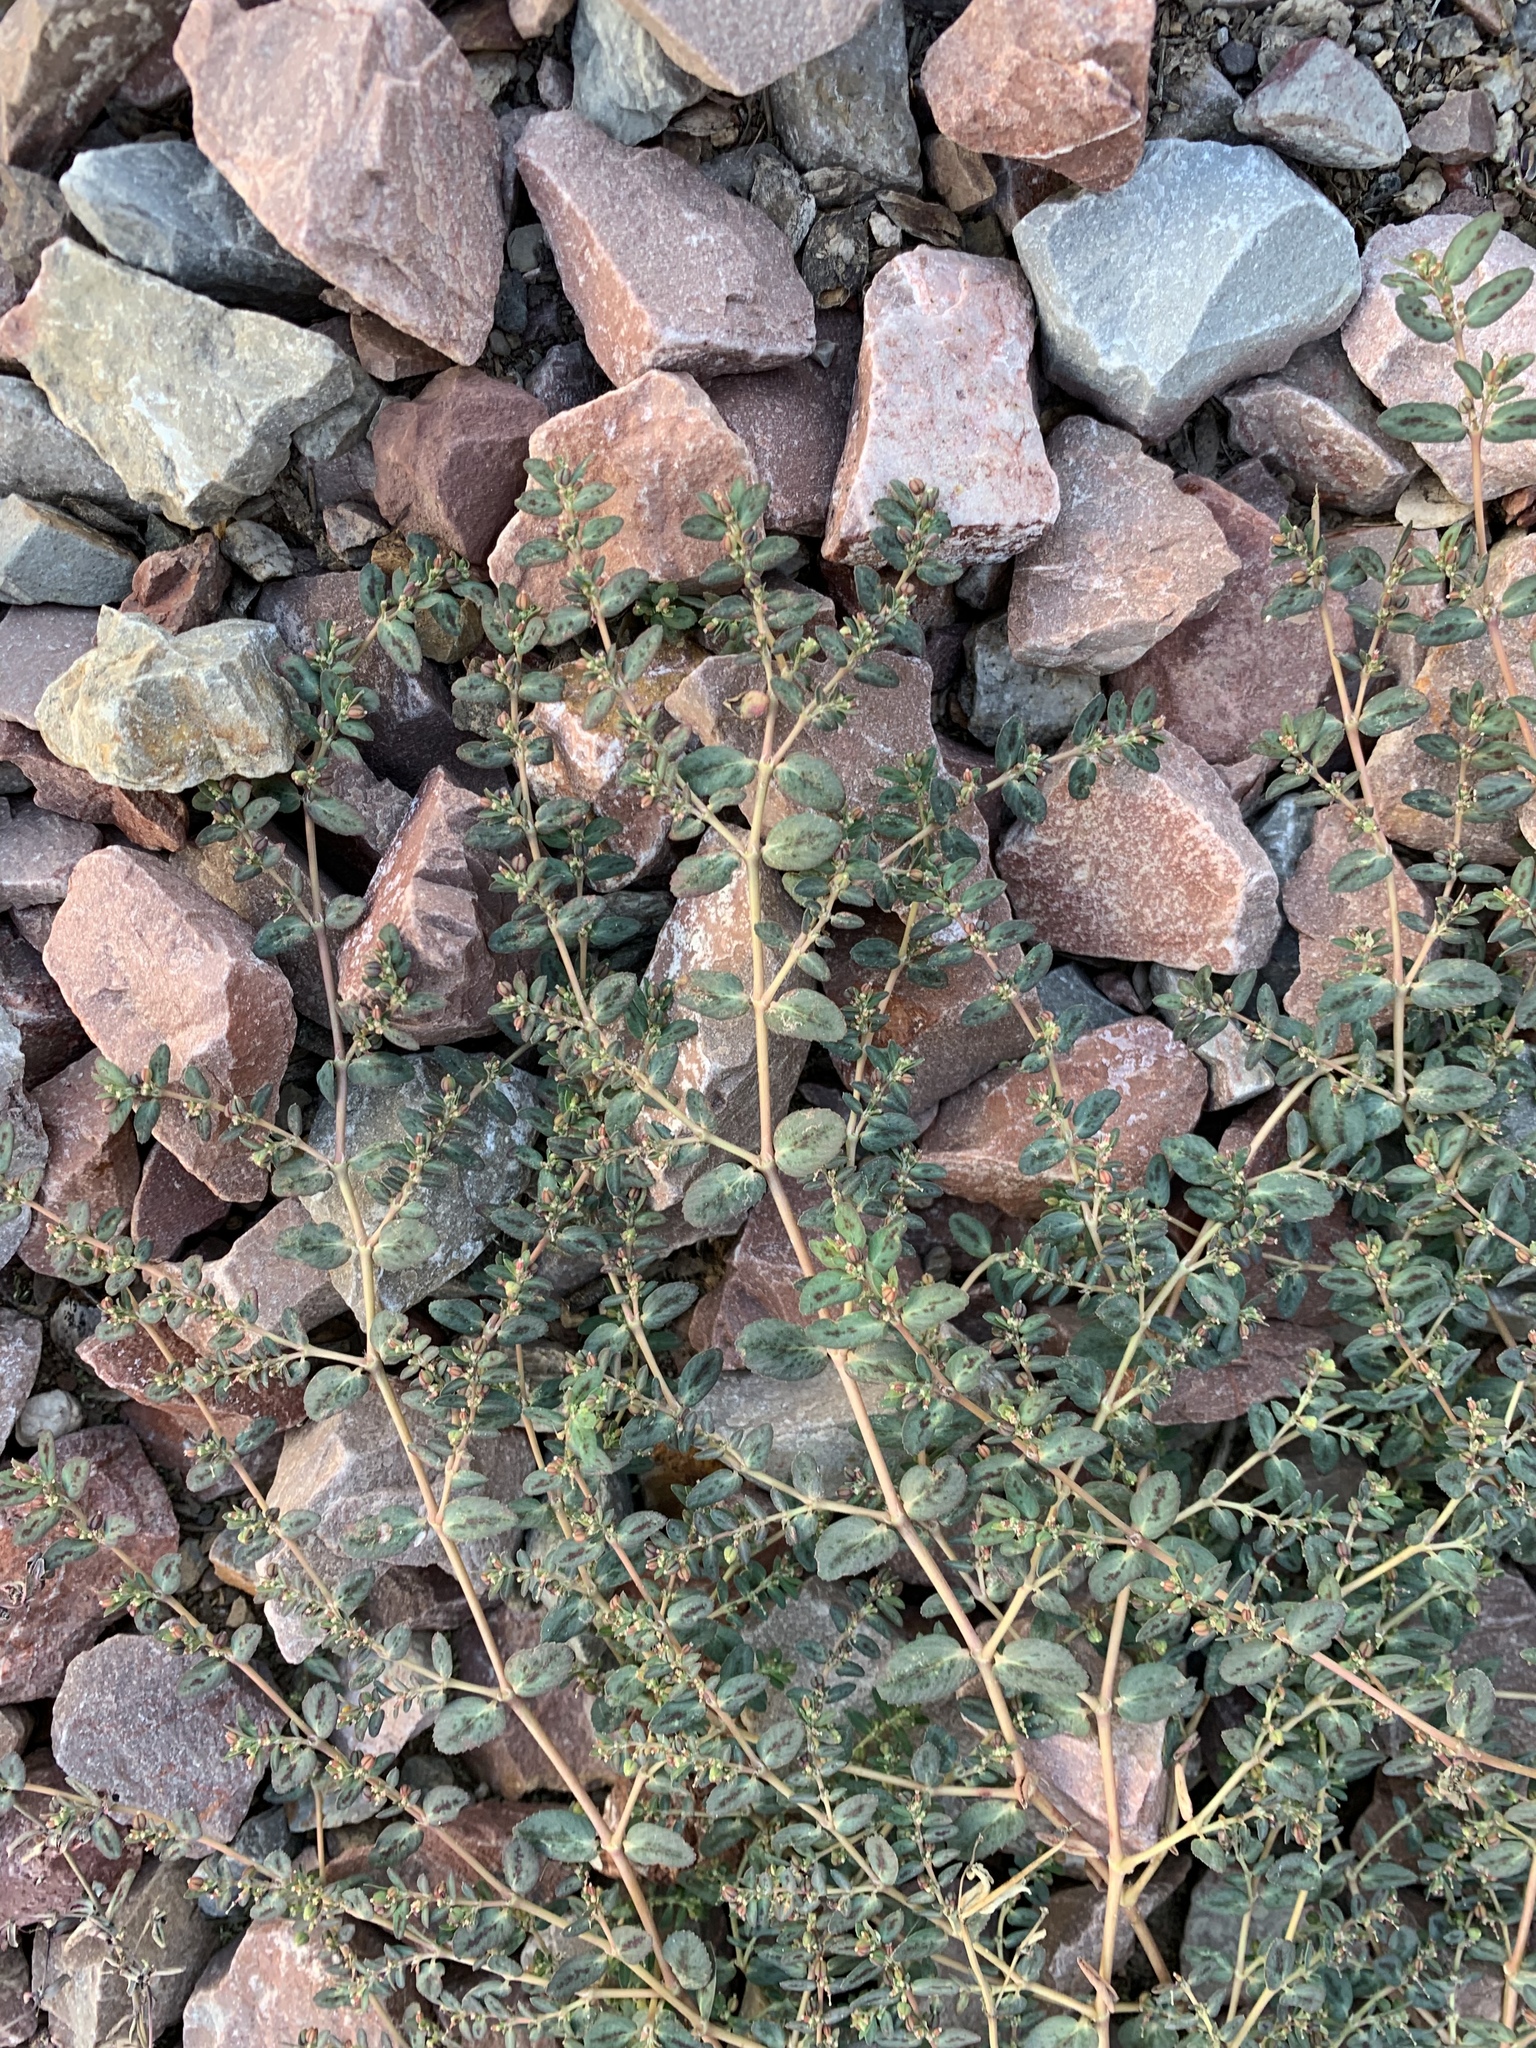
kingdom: Plantae
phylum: Tracheophyta
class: Magnoliopsida
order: Malpighiales
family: Euphorbiaceae
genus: Euphorbia
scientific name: Euphorbia abramsiana
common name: Abram's spurge
